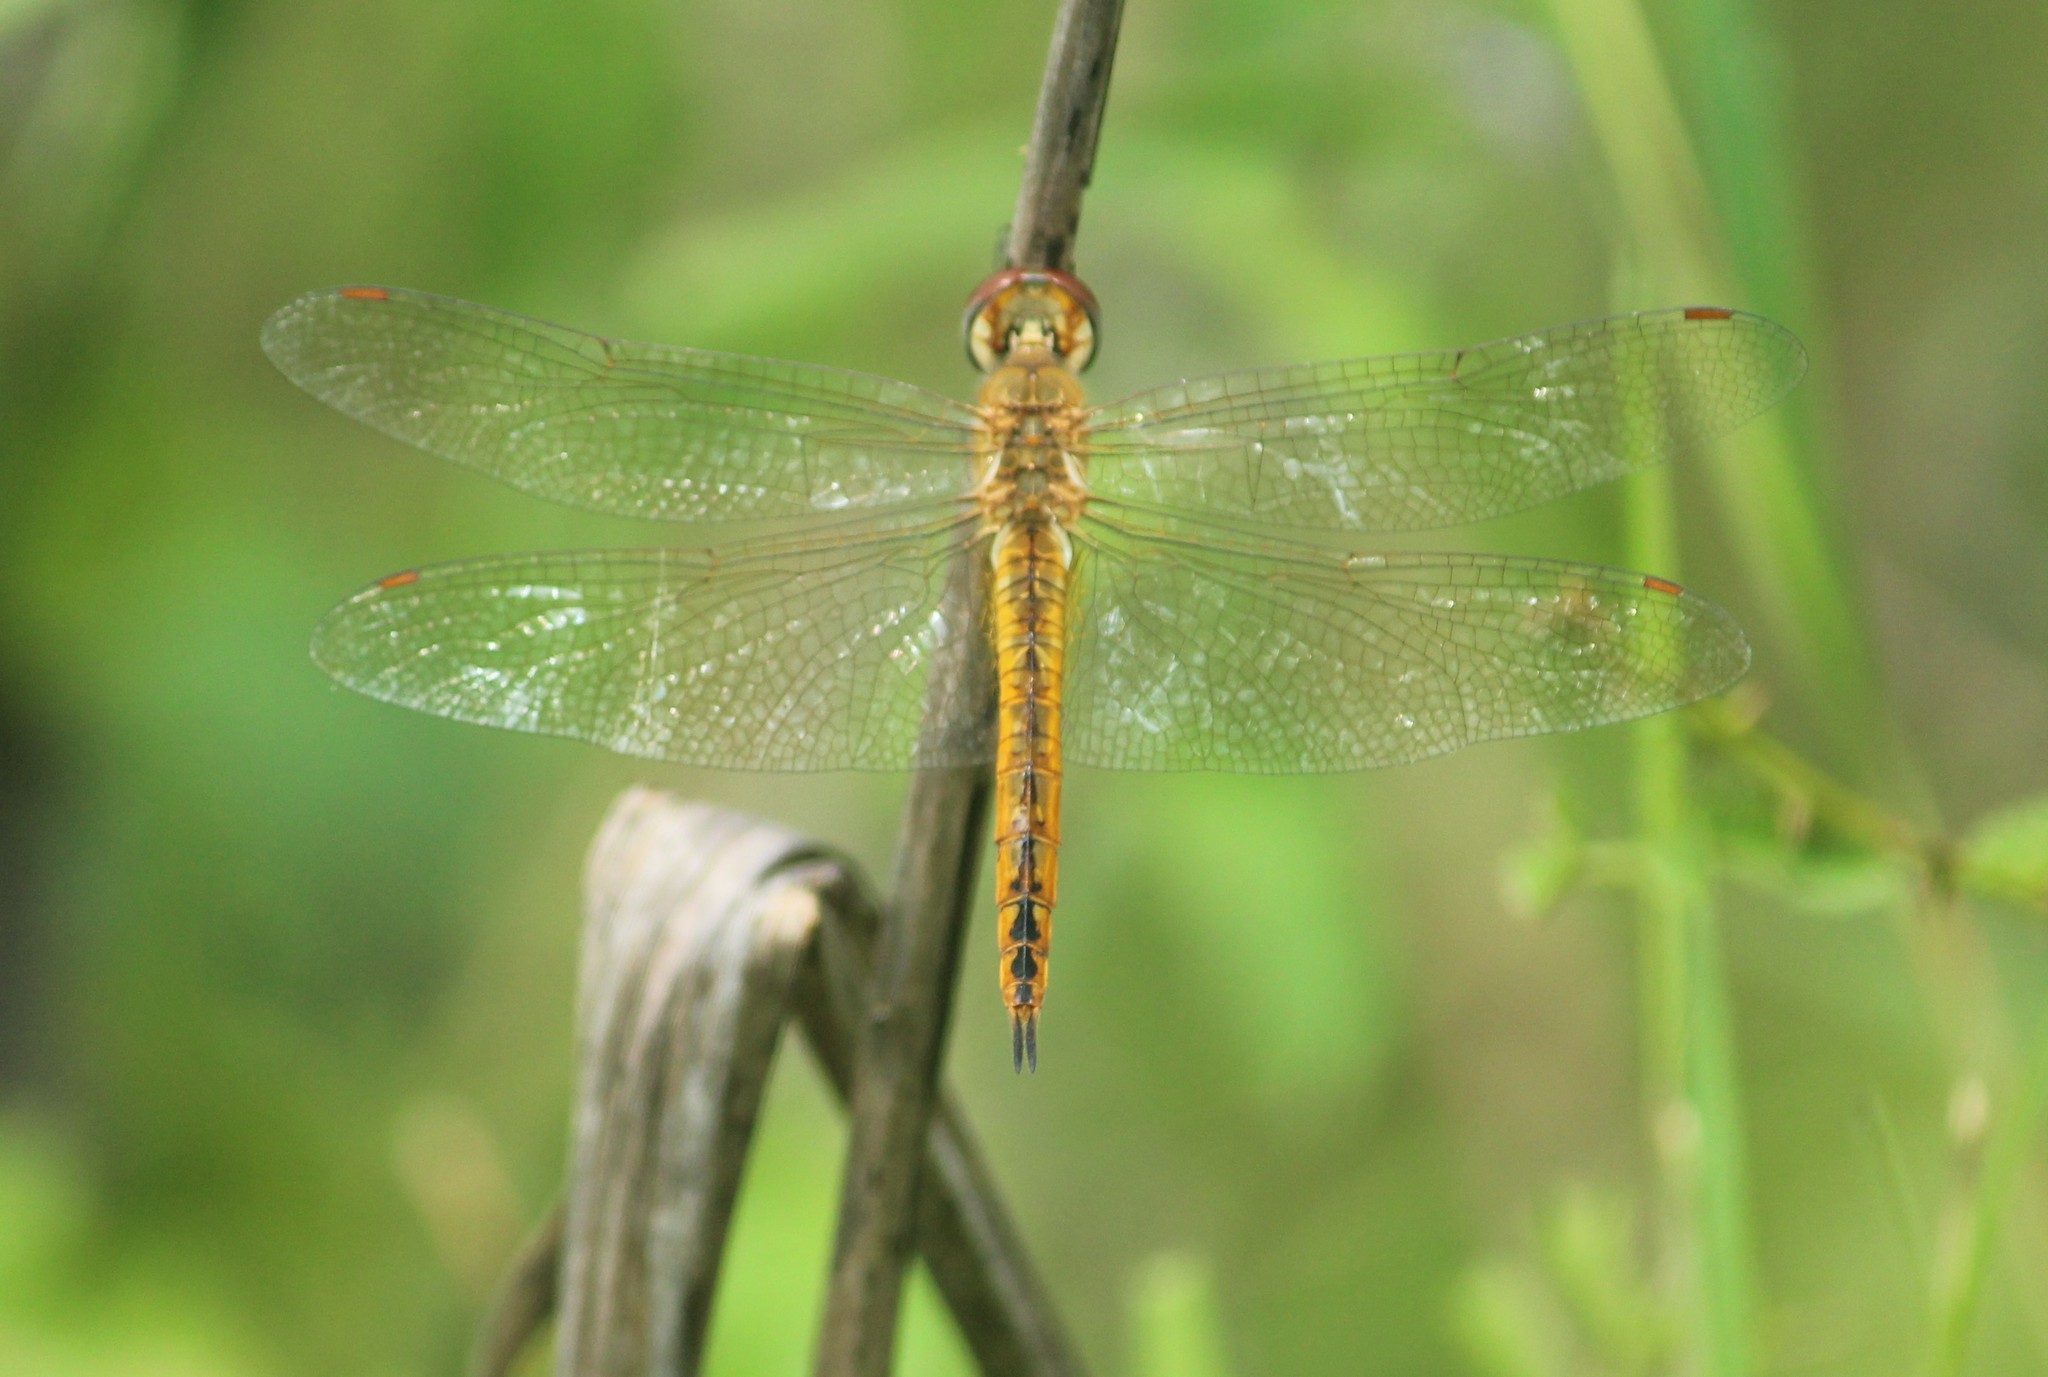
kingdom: Animalia
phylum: Arthropoda
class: Insecta
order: Odonata
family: Libellulidae
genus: Pantala
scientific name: Pantala flavescens
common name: Wandering glider
